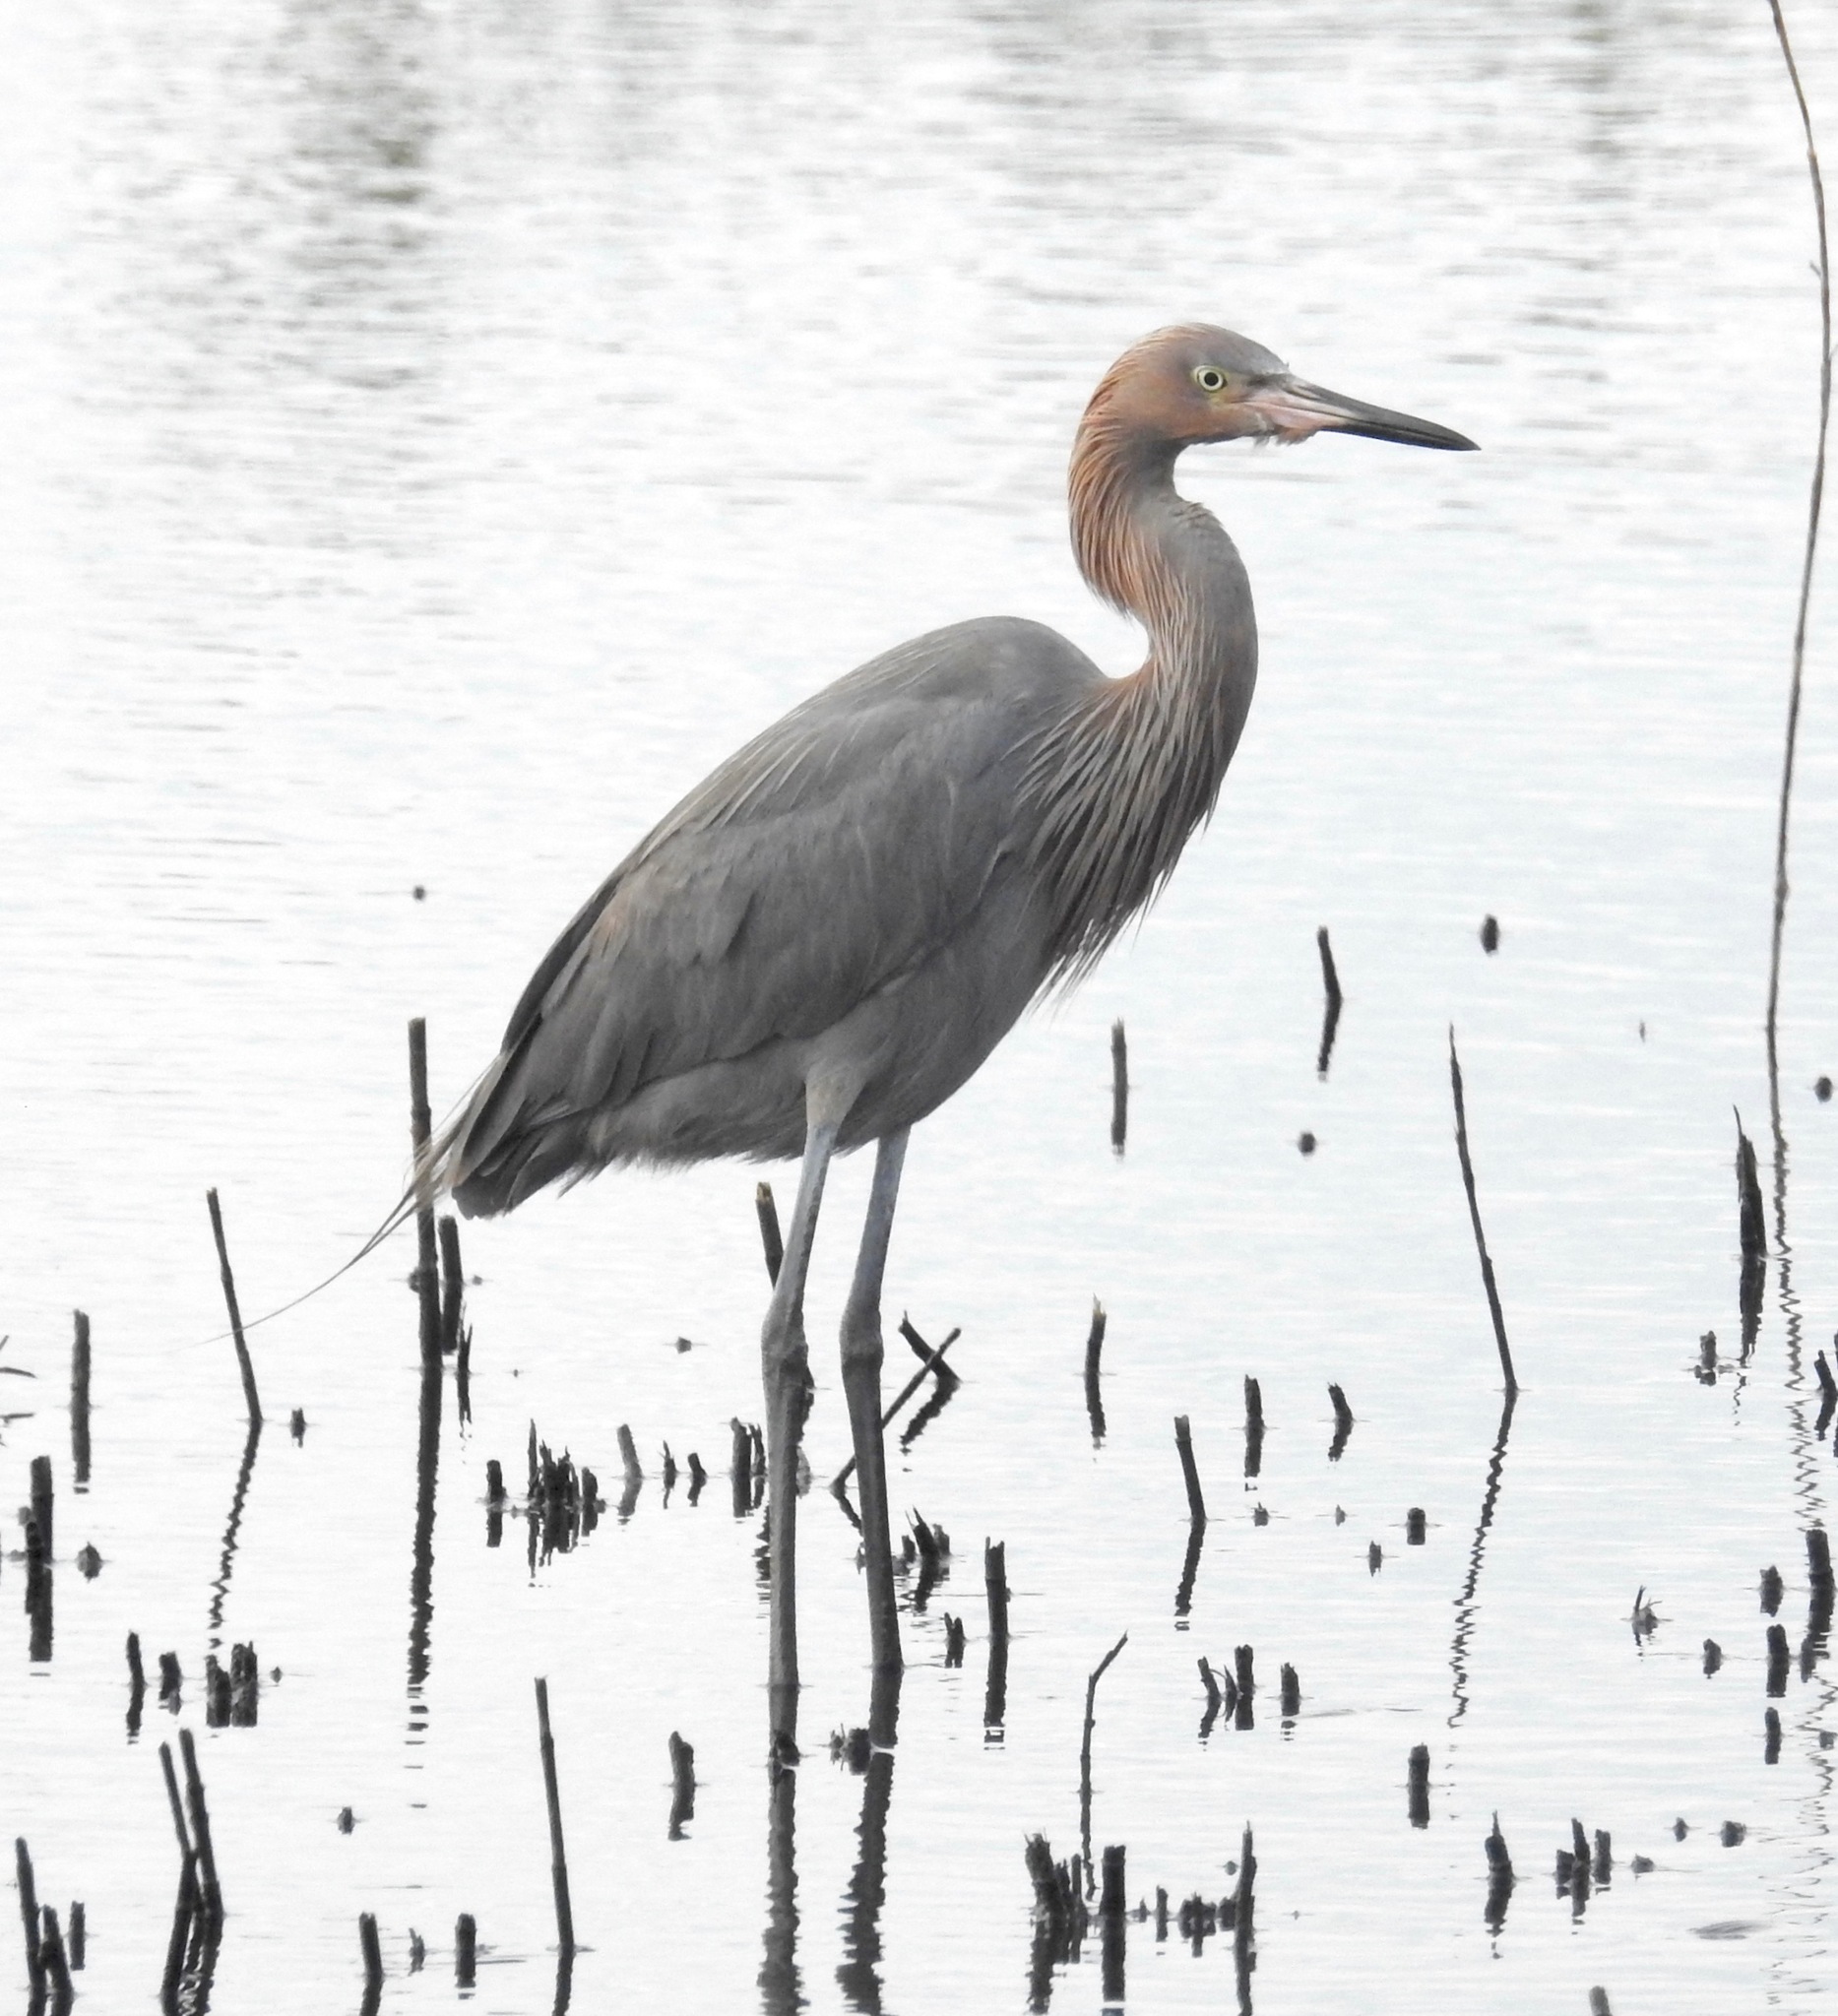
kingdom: Animalia
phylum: Chordata
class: Aves
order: Pelecaniformes
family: Ardeidae
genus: Egretta
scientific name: Egretta rufescens
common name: Reddish egret
